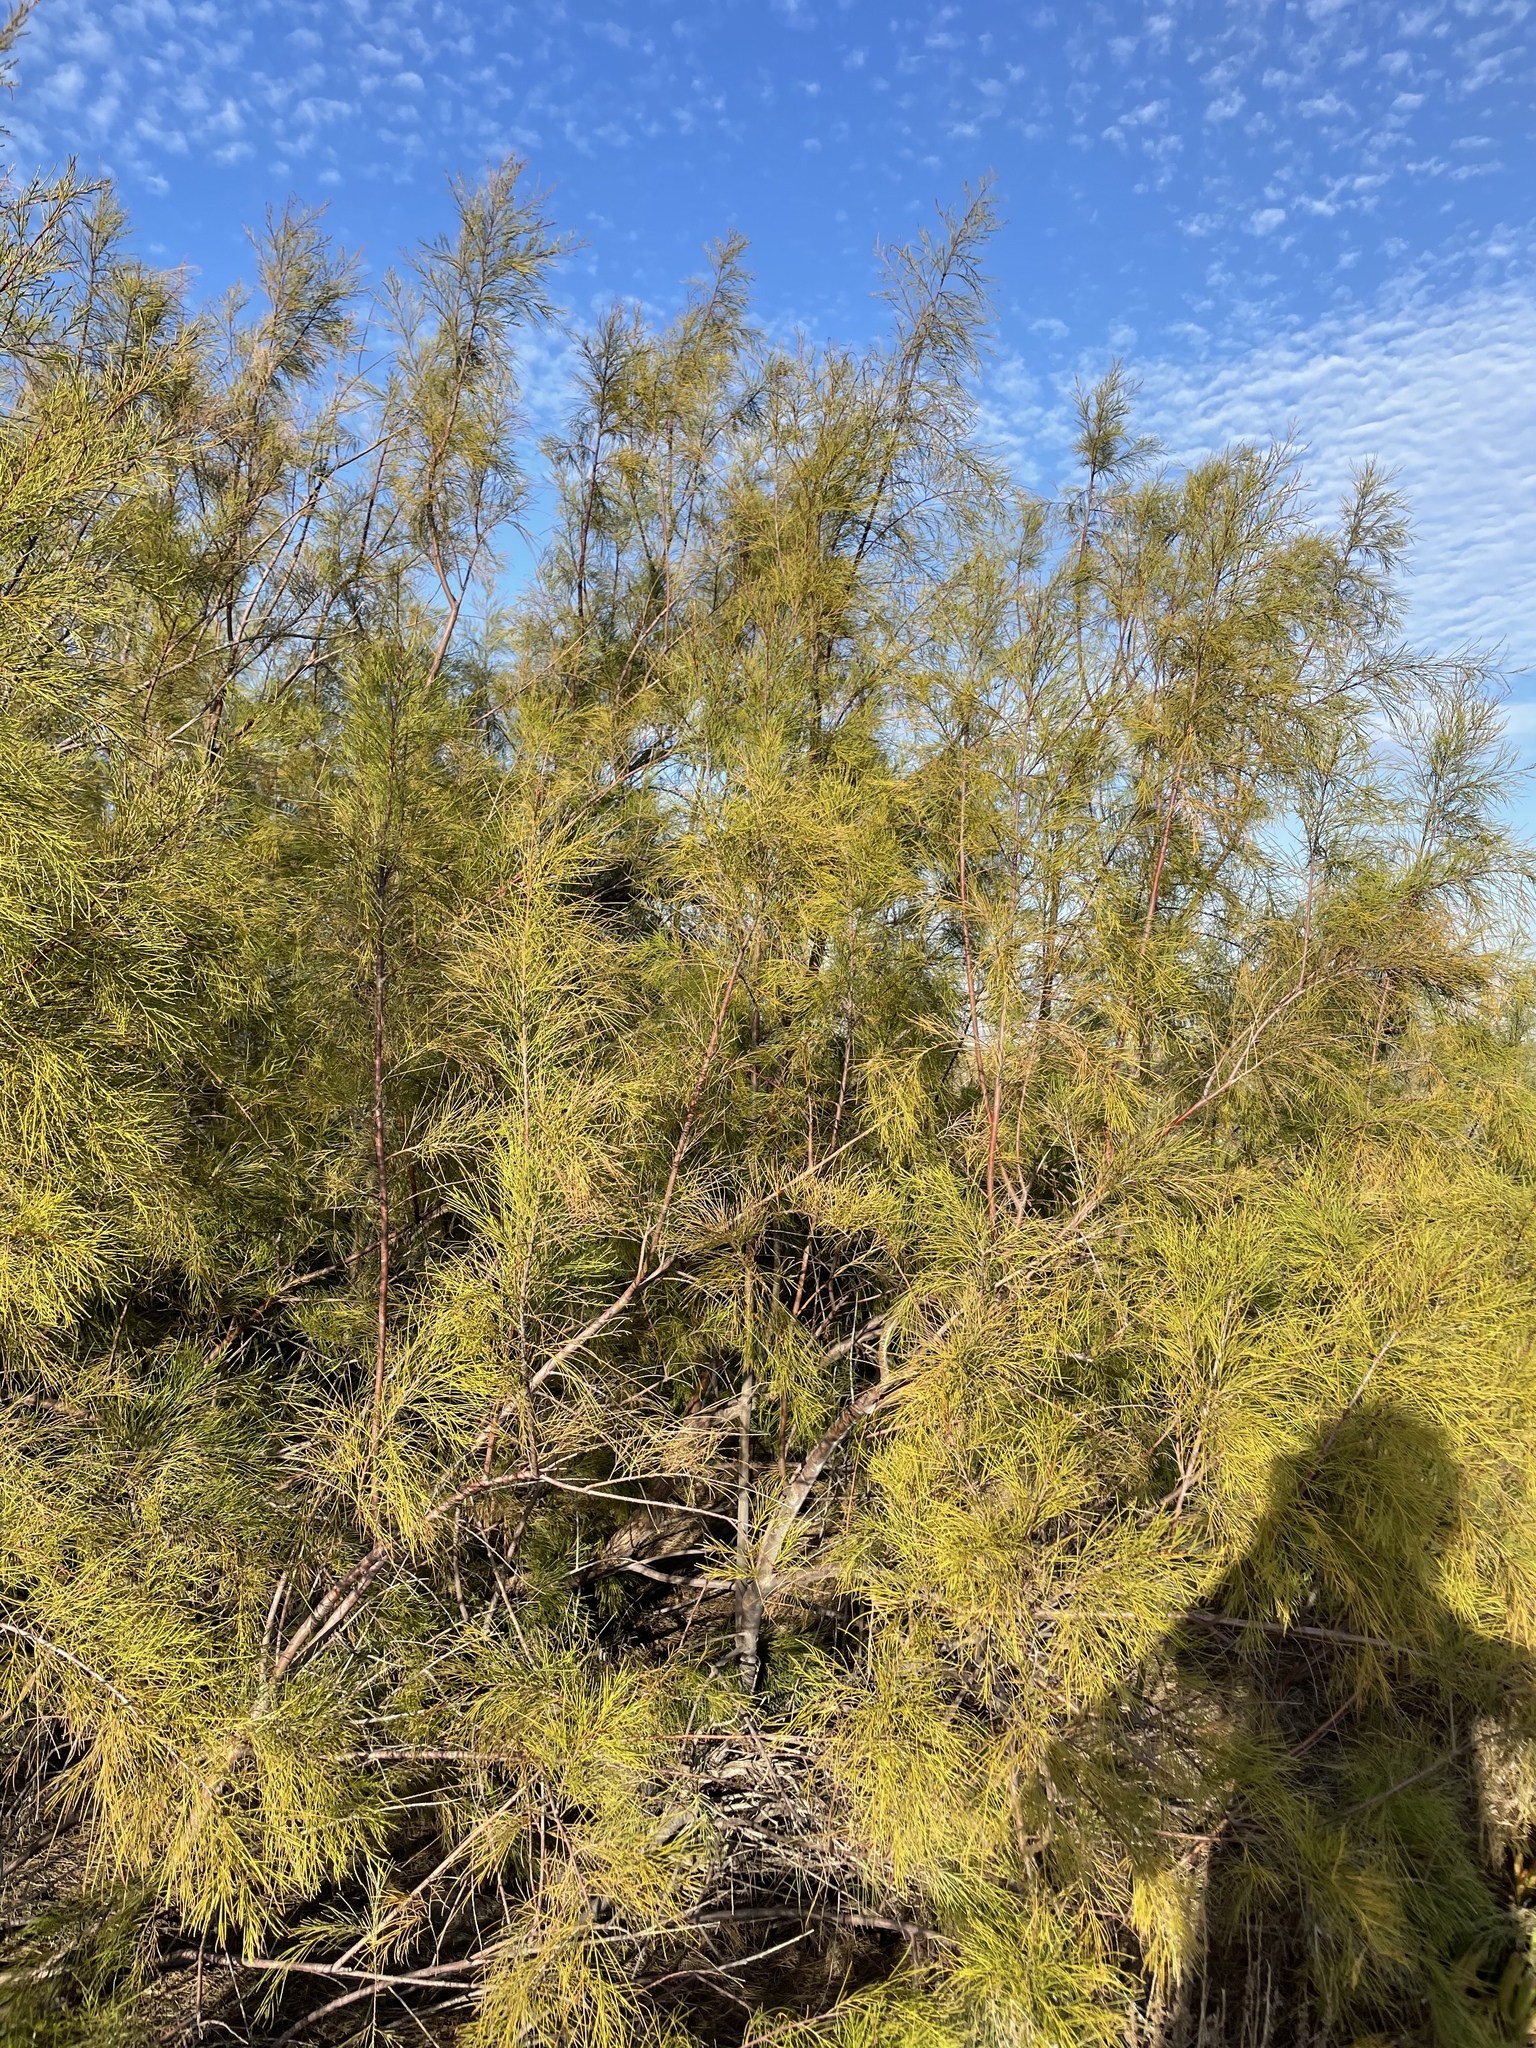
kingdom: Plantae
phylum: Tracheophyta
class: Magnoliopsida
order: Caryophyllales
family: Tamaricaceae
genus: Tamarix
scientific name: Tamarix aphylla
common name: Athel tamarisk
